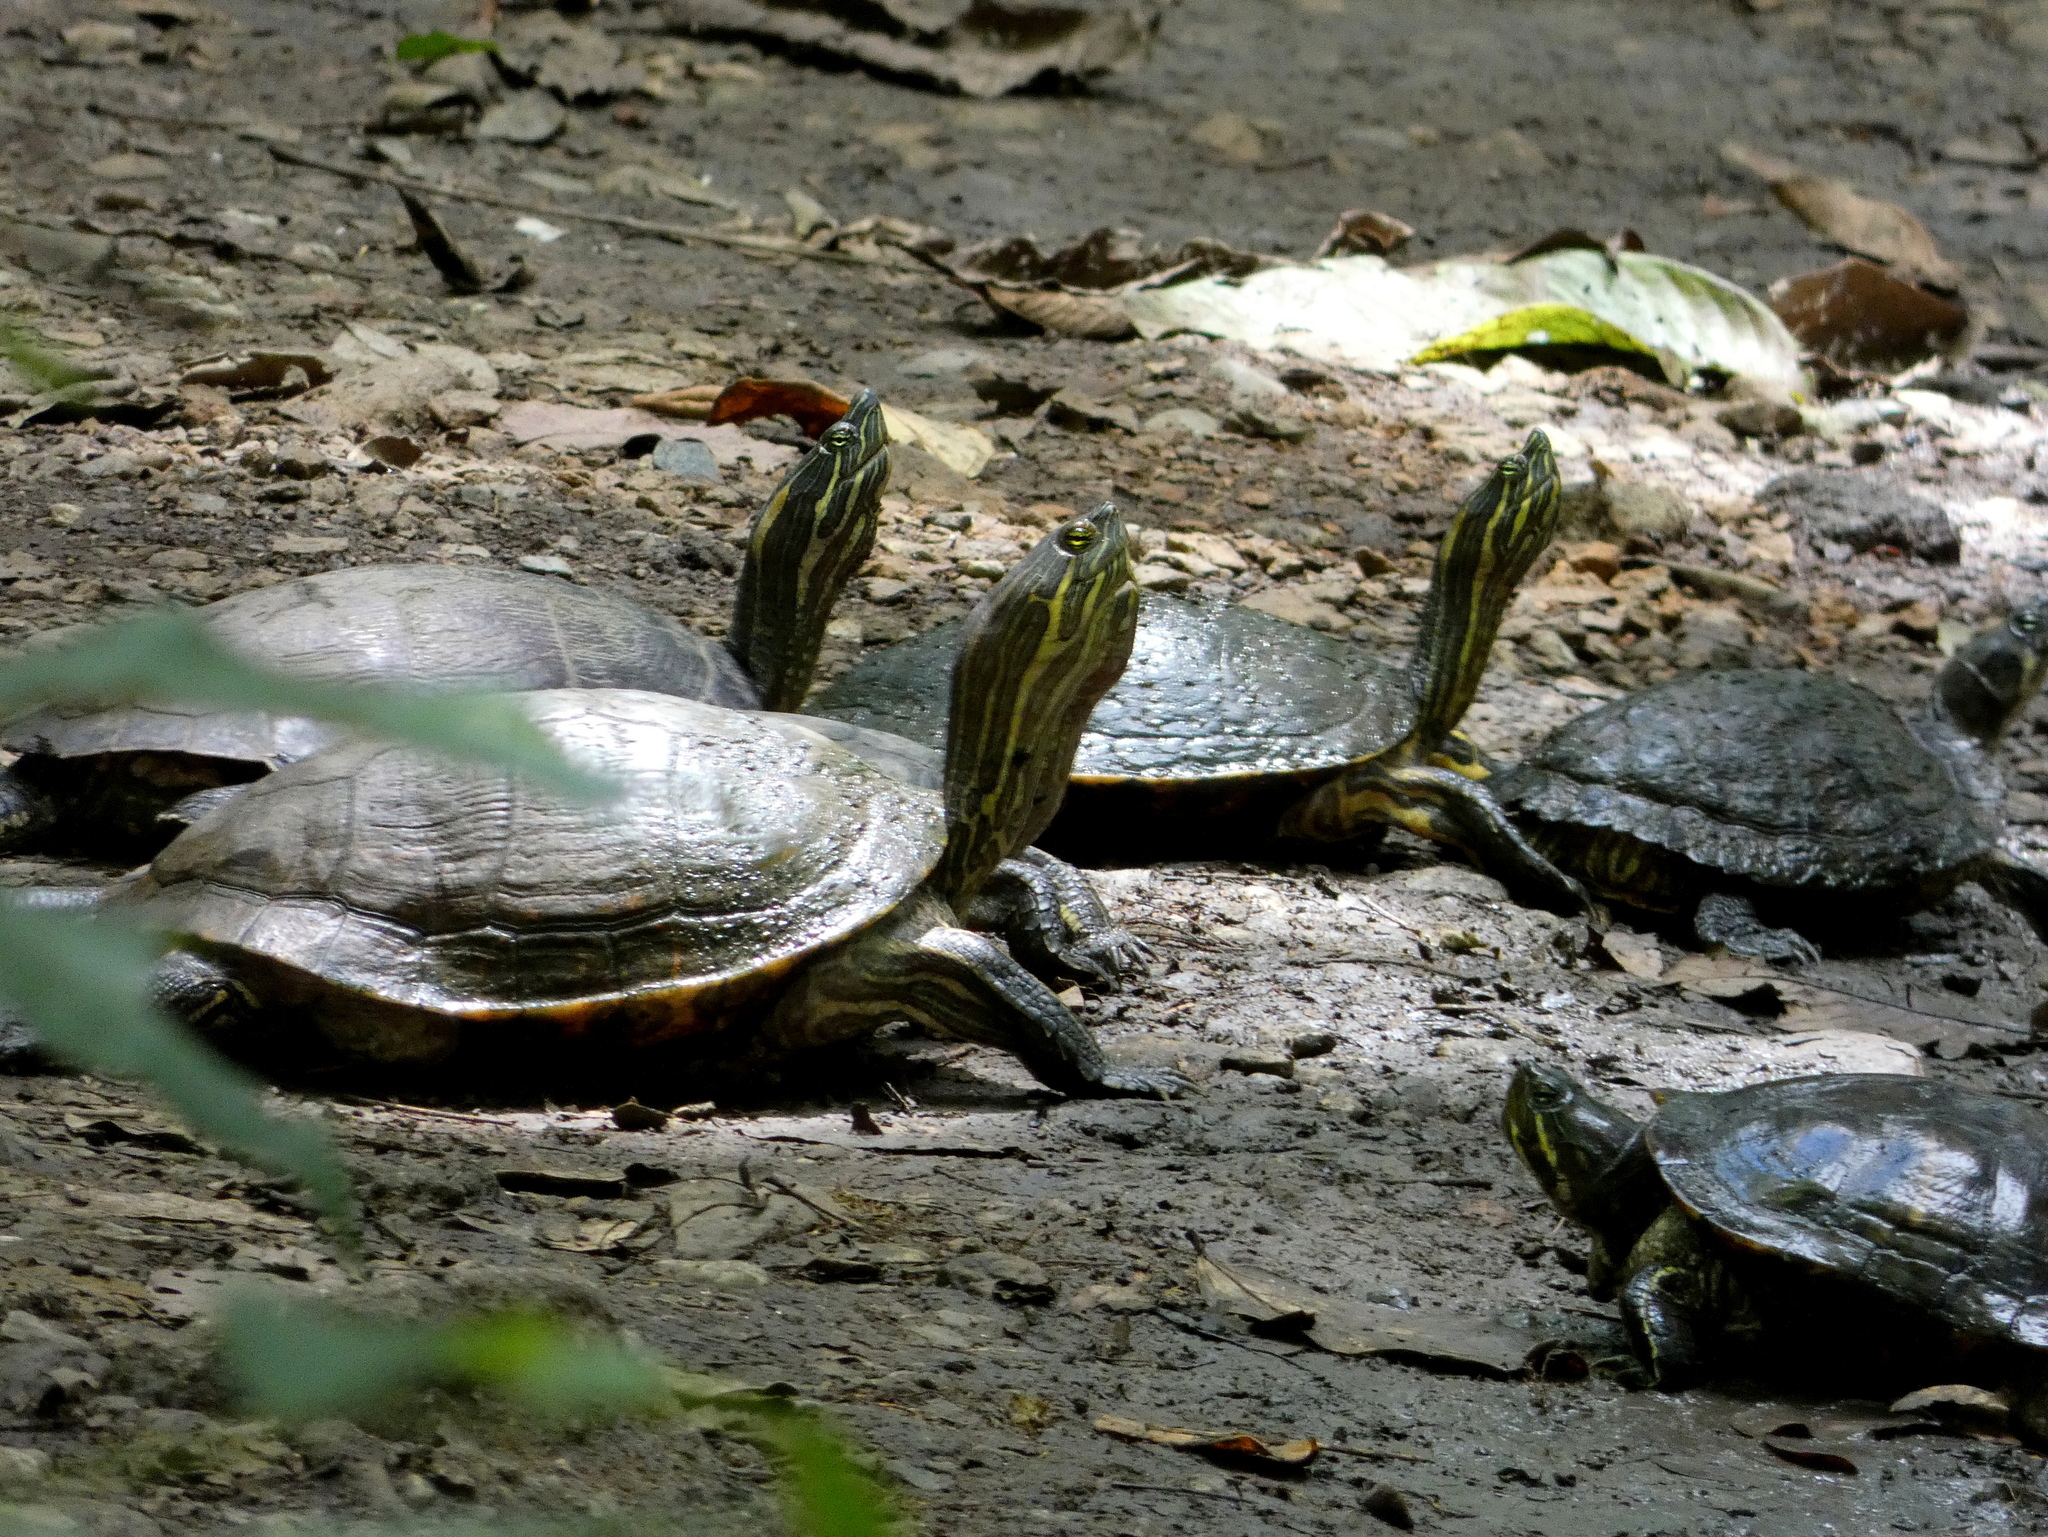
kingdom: Animalia
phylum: Chordata
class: Testudines
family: Emydidae
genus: Trachemys
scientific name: Trachemys venusta
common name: Mesoamerican slider
